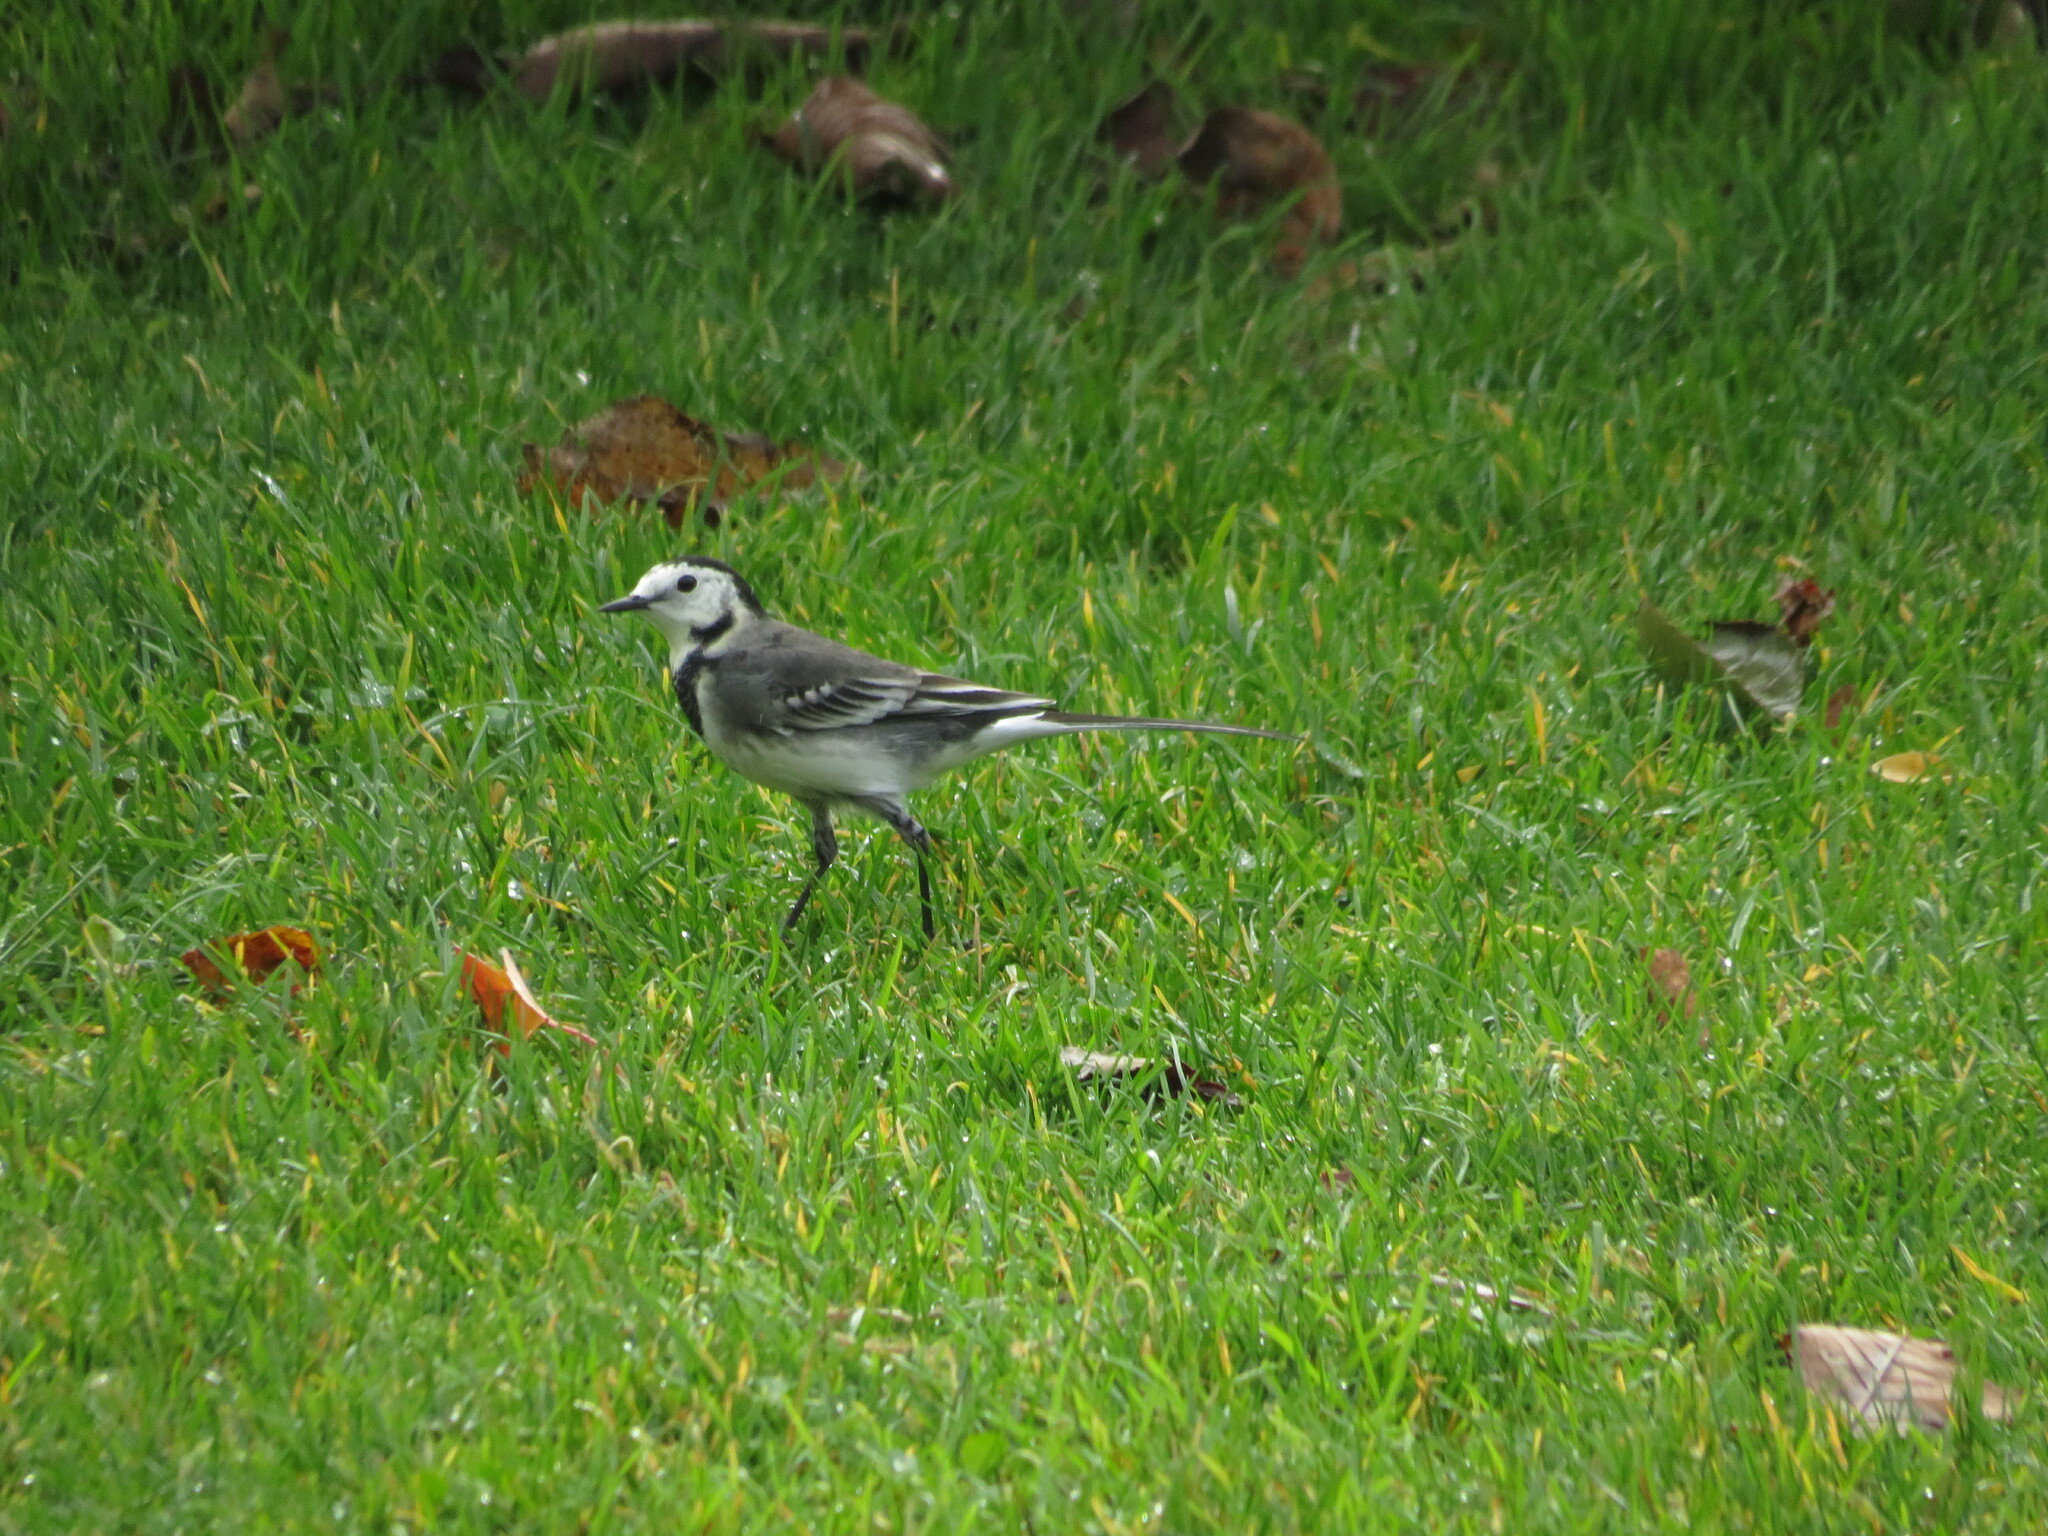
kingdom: Animalia
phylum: Chordata
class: Aves
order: Passeriformes
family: Motacillidae
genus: Motacilla
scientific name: Motacilla alba
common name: White wagtail
